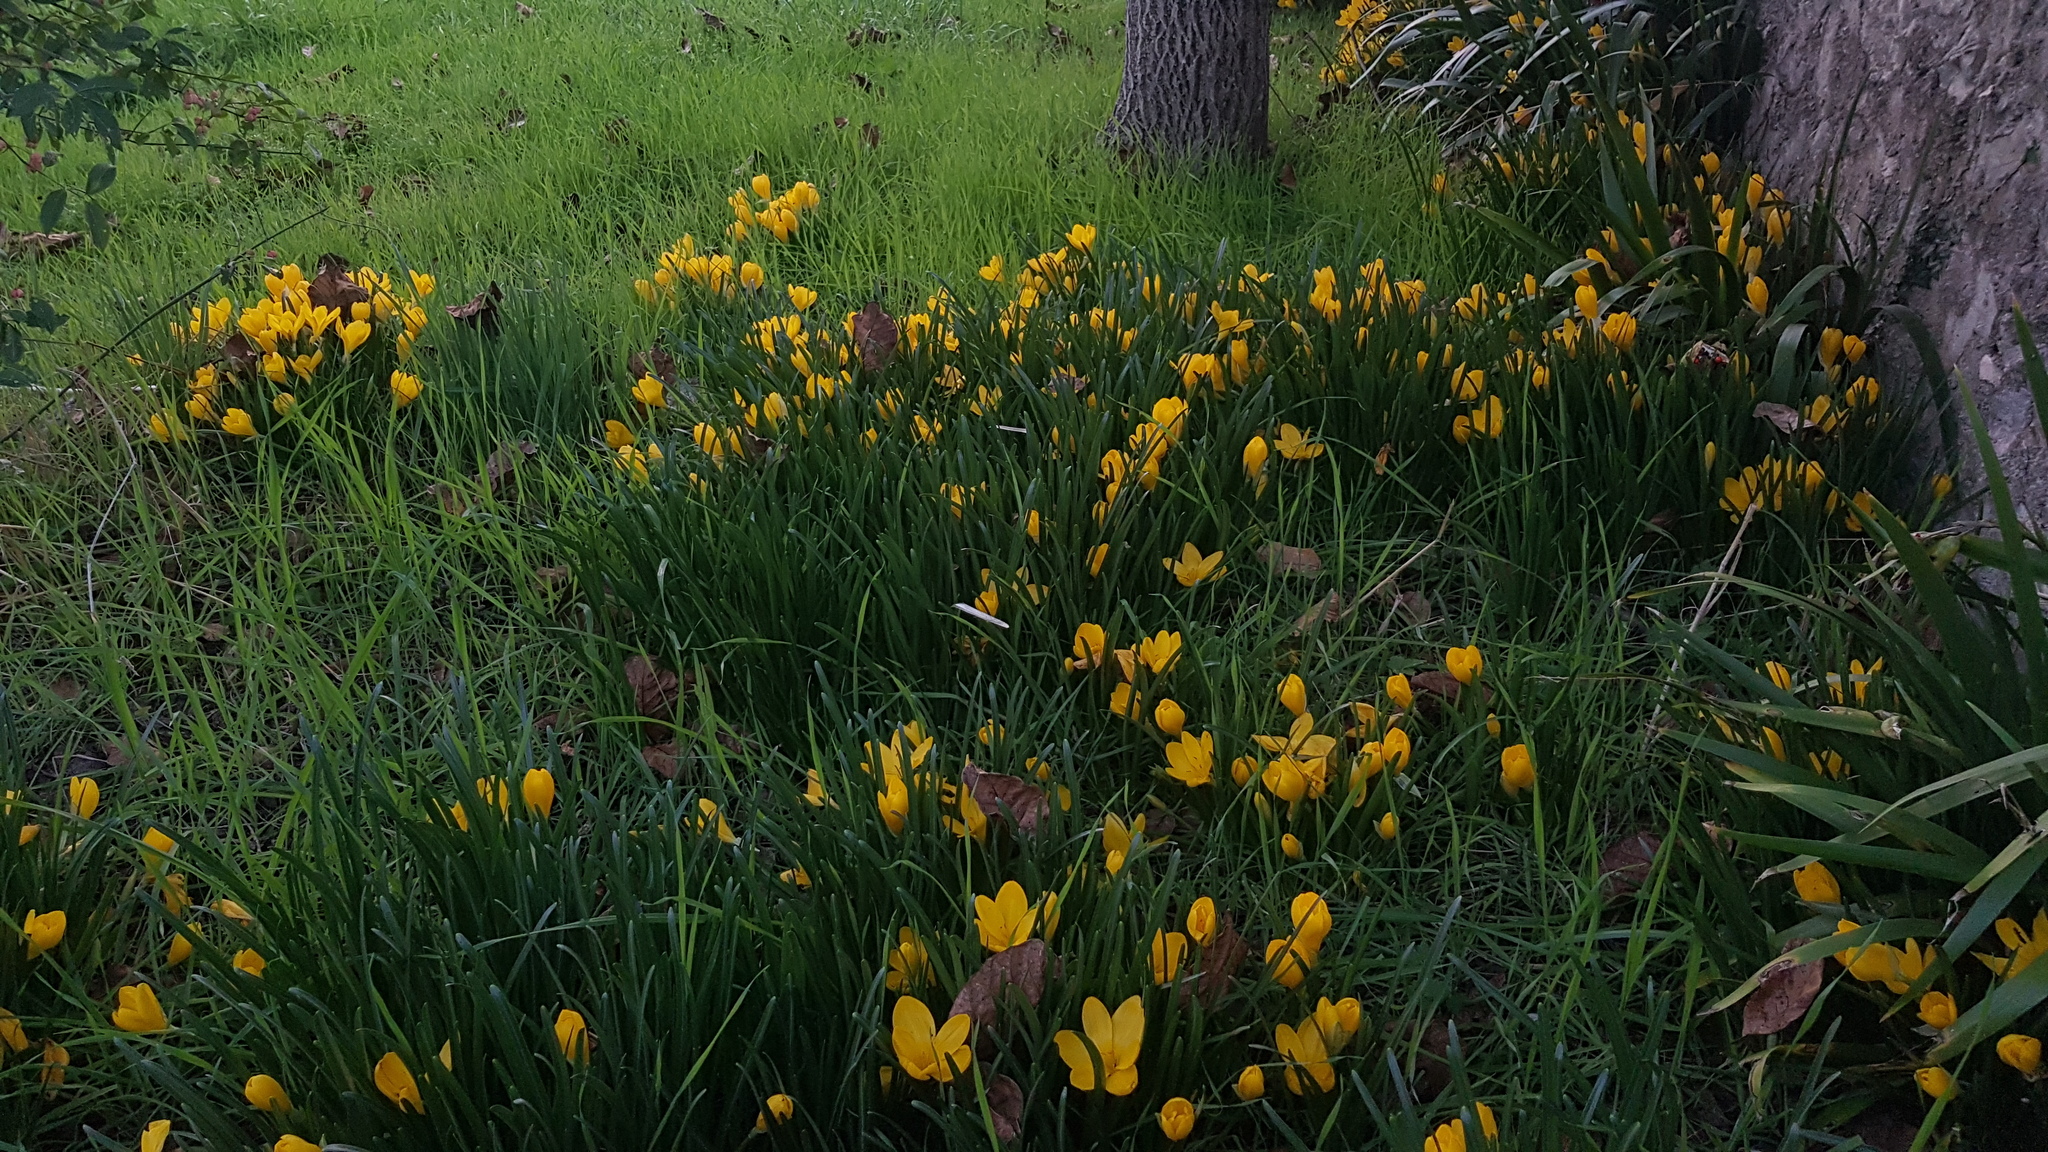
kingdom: Plantae
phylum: Tracheophyta
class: Liliopsida
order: Asparagales
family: Amaryllidaceae
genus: Sternbergia
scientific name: Sternbergia lutea
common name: Winter daffodil
